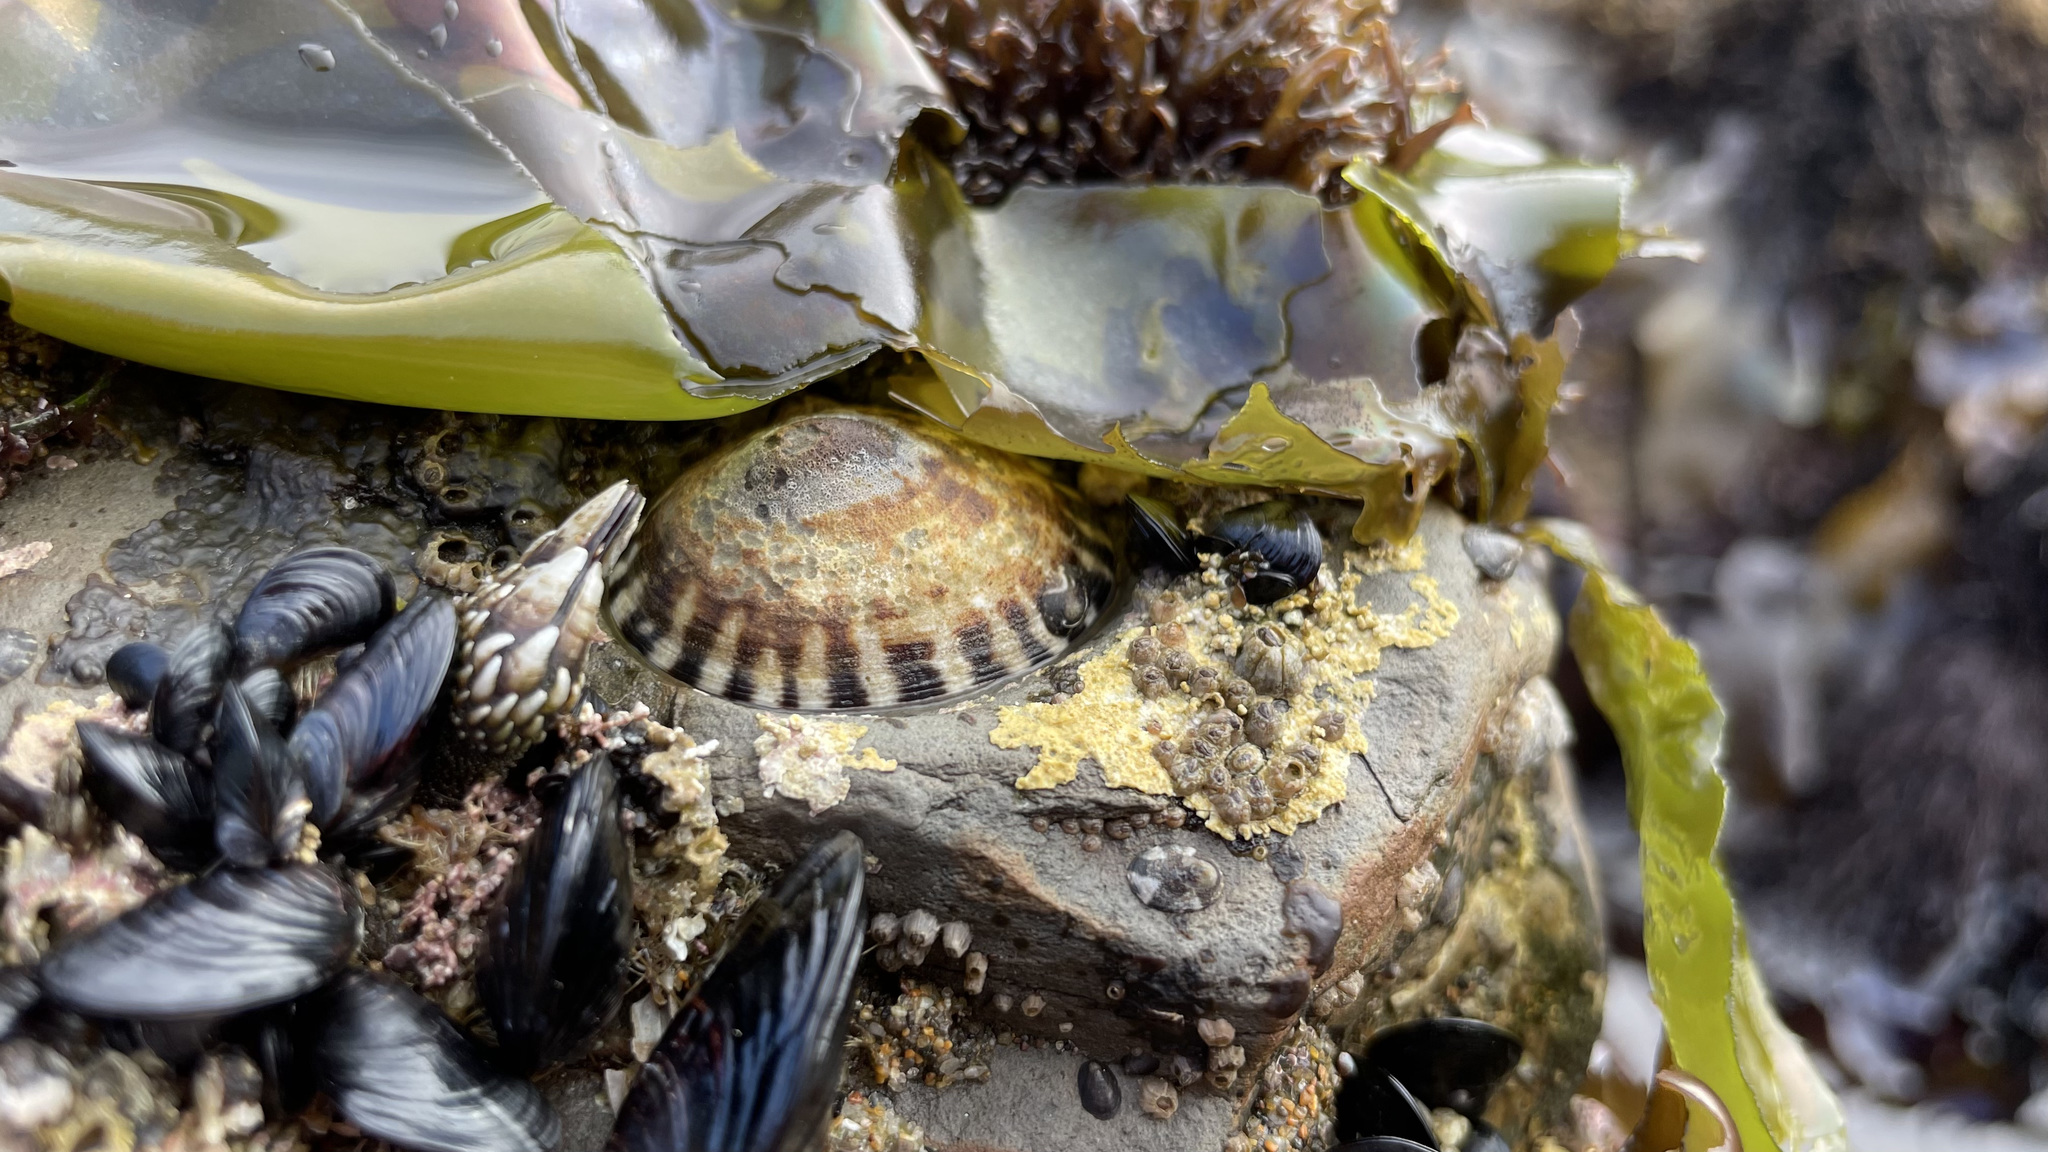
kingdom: Animalia
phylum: Mollusca
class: Gastropoda
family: Lottiidae
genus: Lottia
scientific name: Lottia gigantea
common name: Owl limpet
